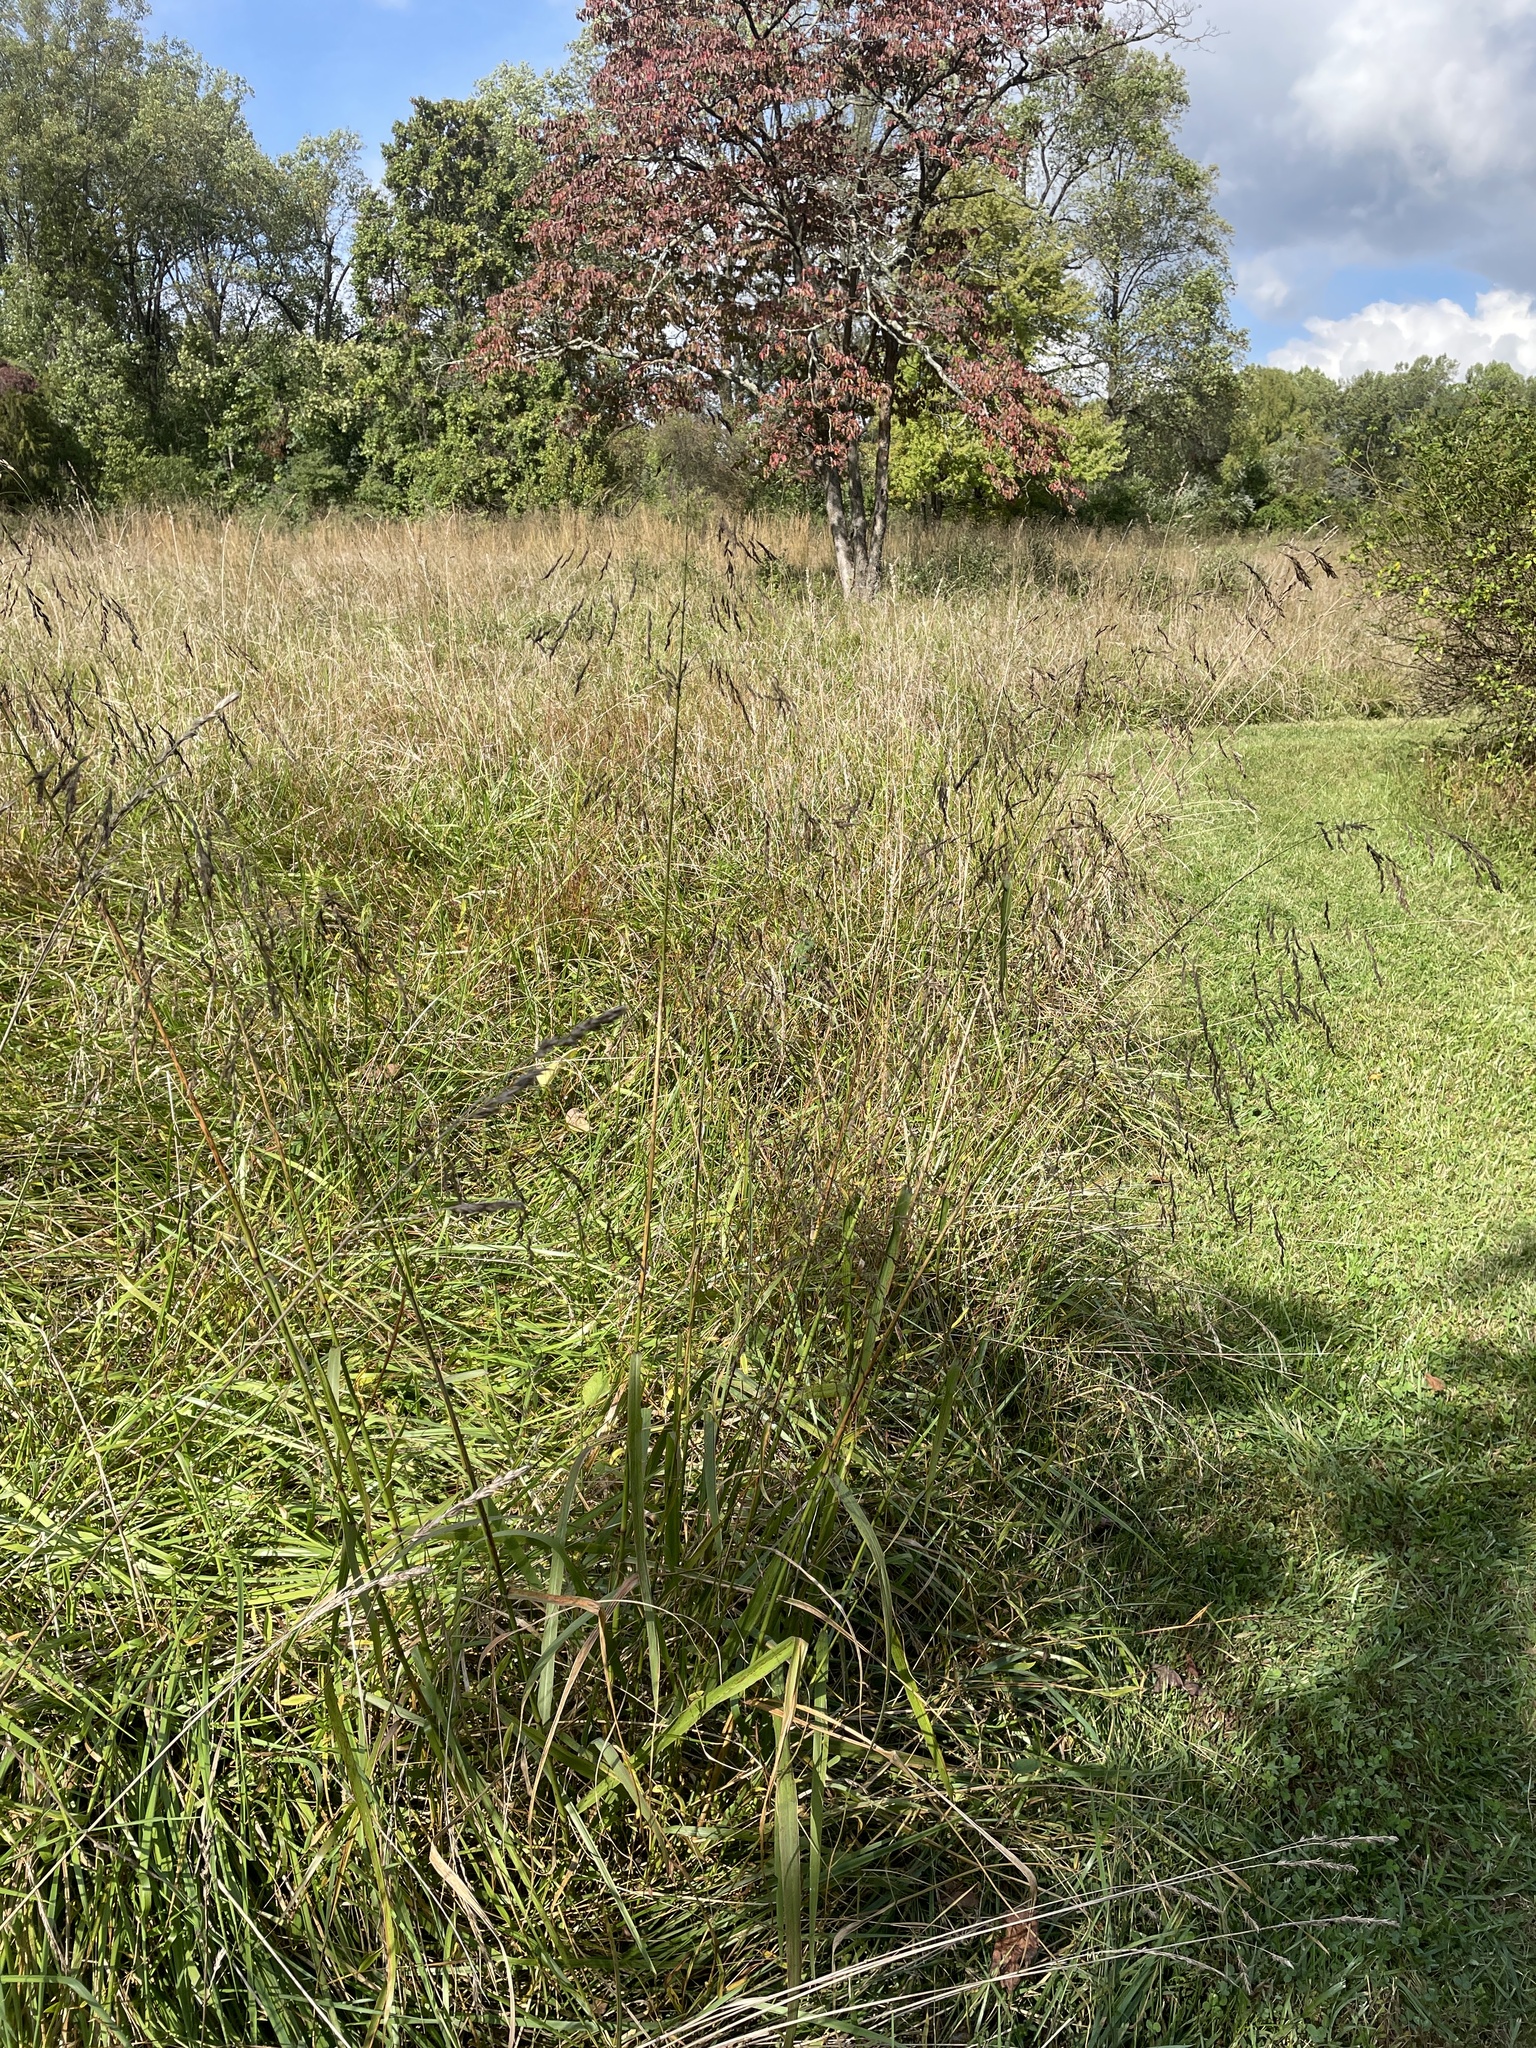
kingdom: Plantae
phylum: Tracheophyta
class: Liliopsida
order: Poales
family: Poaceae
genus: Tridens
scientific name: Tridens flavus
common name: Purpletop
